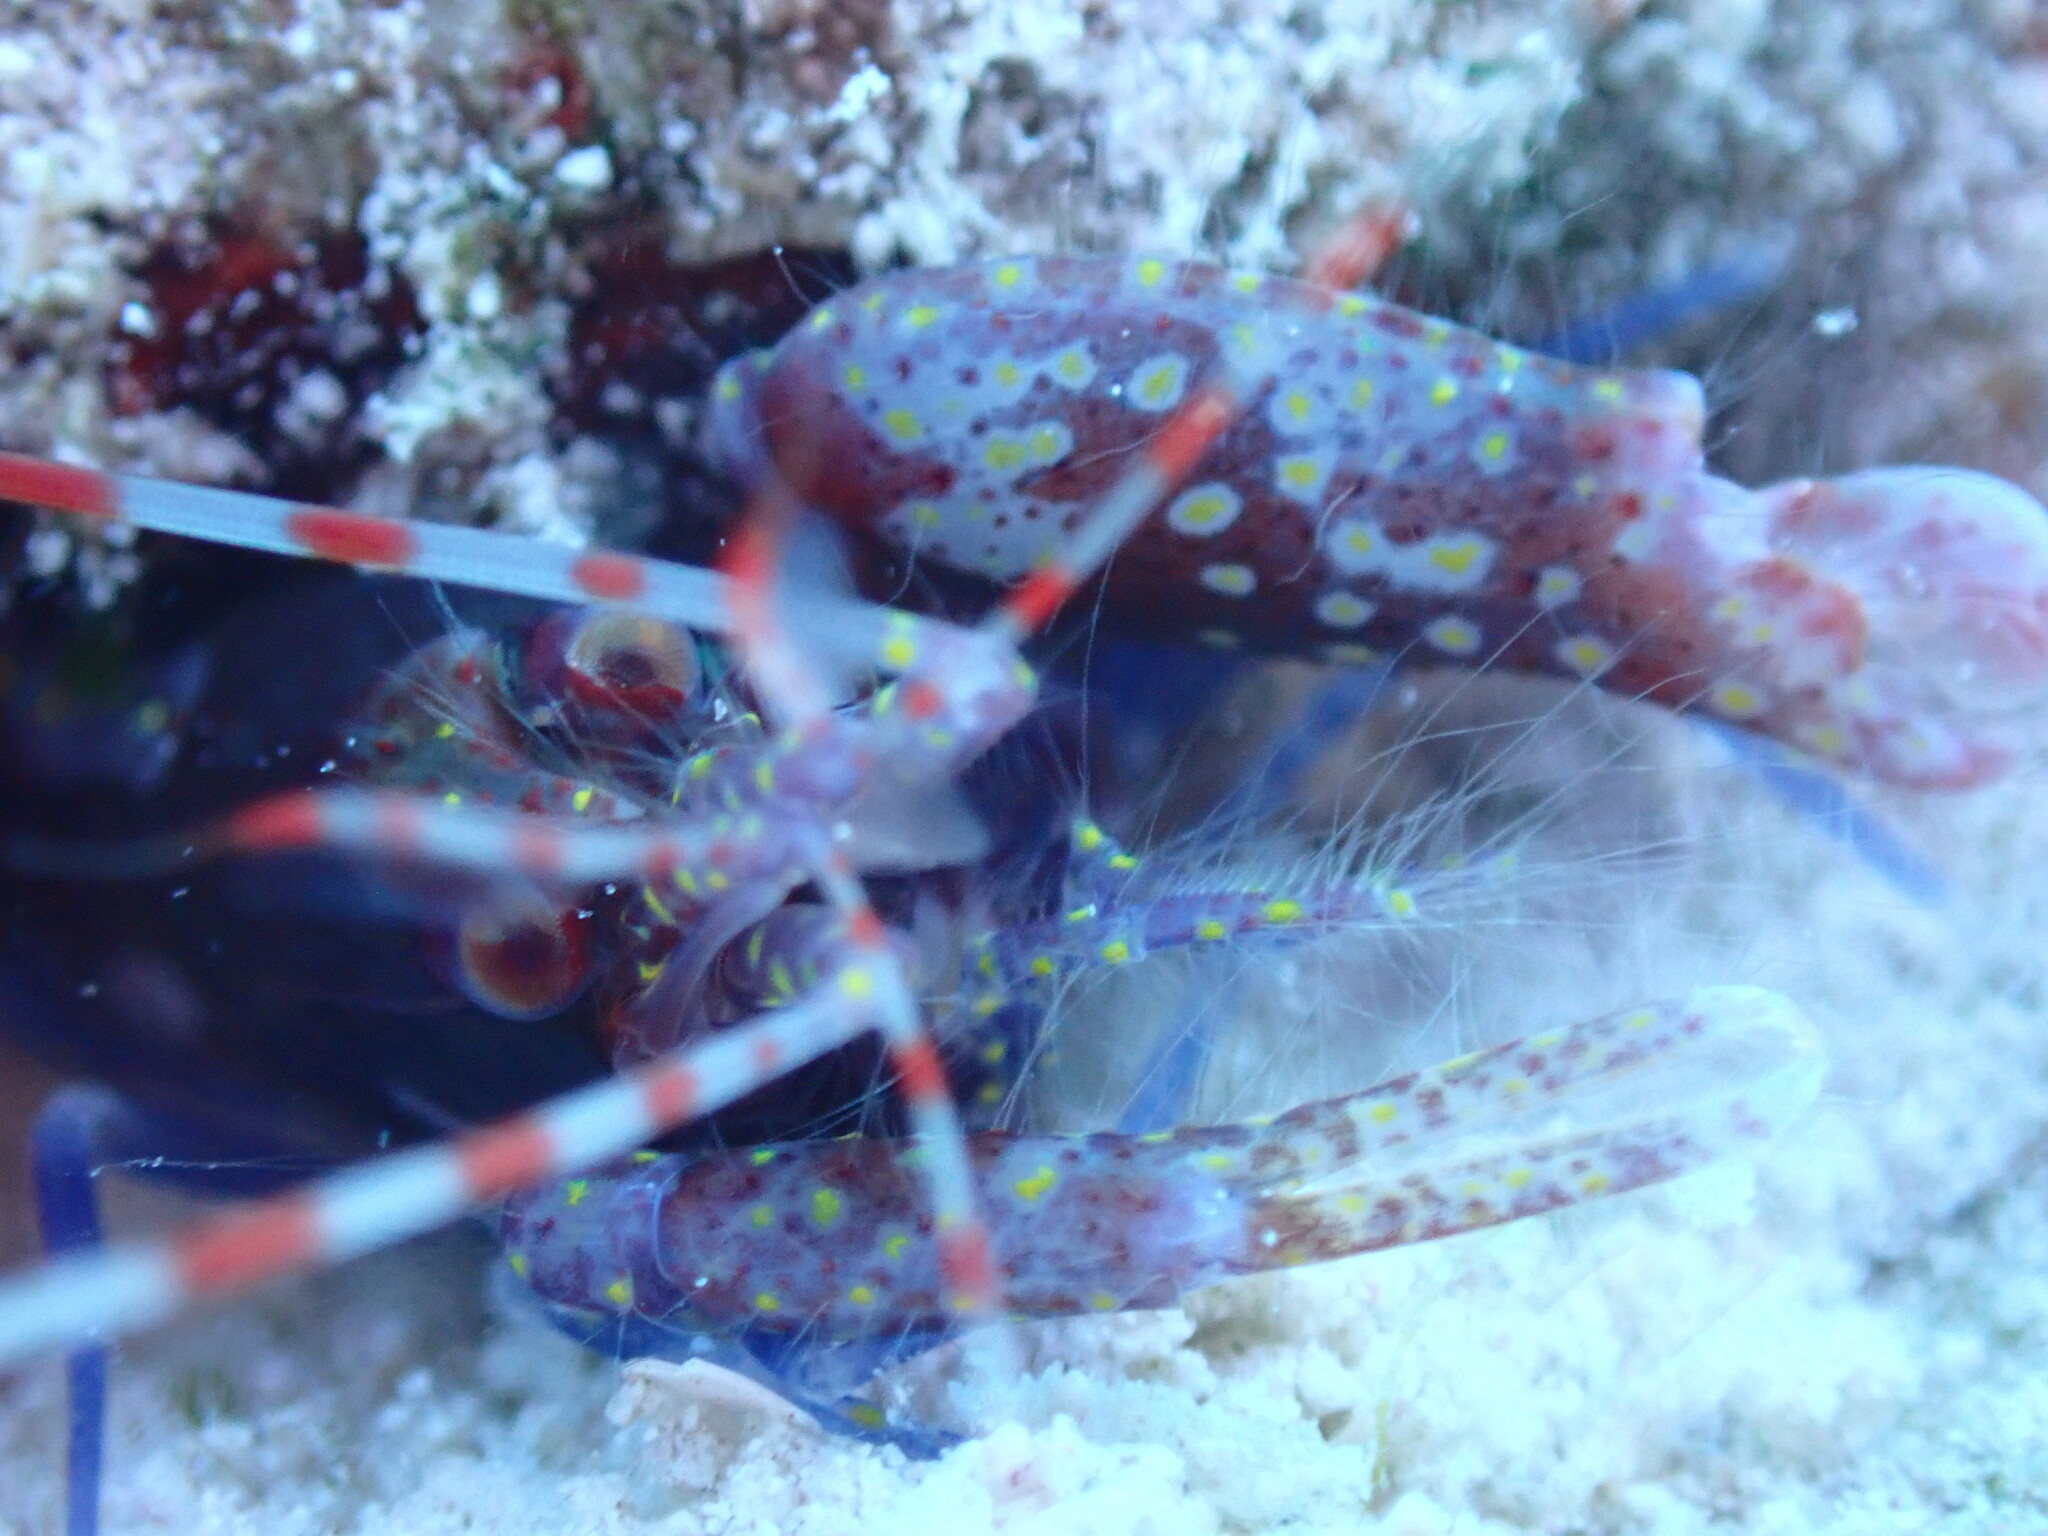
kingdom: Animalia
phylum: Arthropoda
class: Malacostraca
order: Decapoda
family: Alpheidae
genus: Alpheus
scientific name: Alpheus armatus
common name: Brown snapping shrimp
